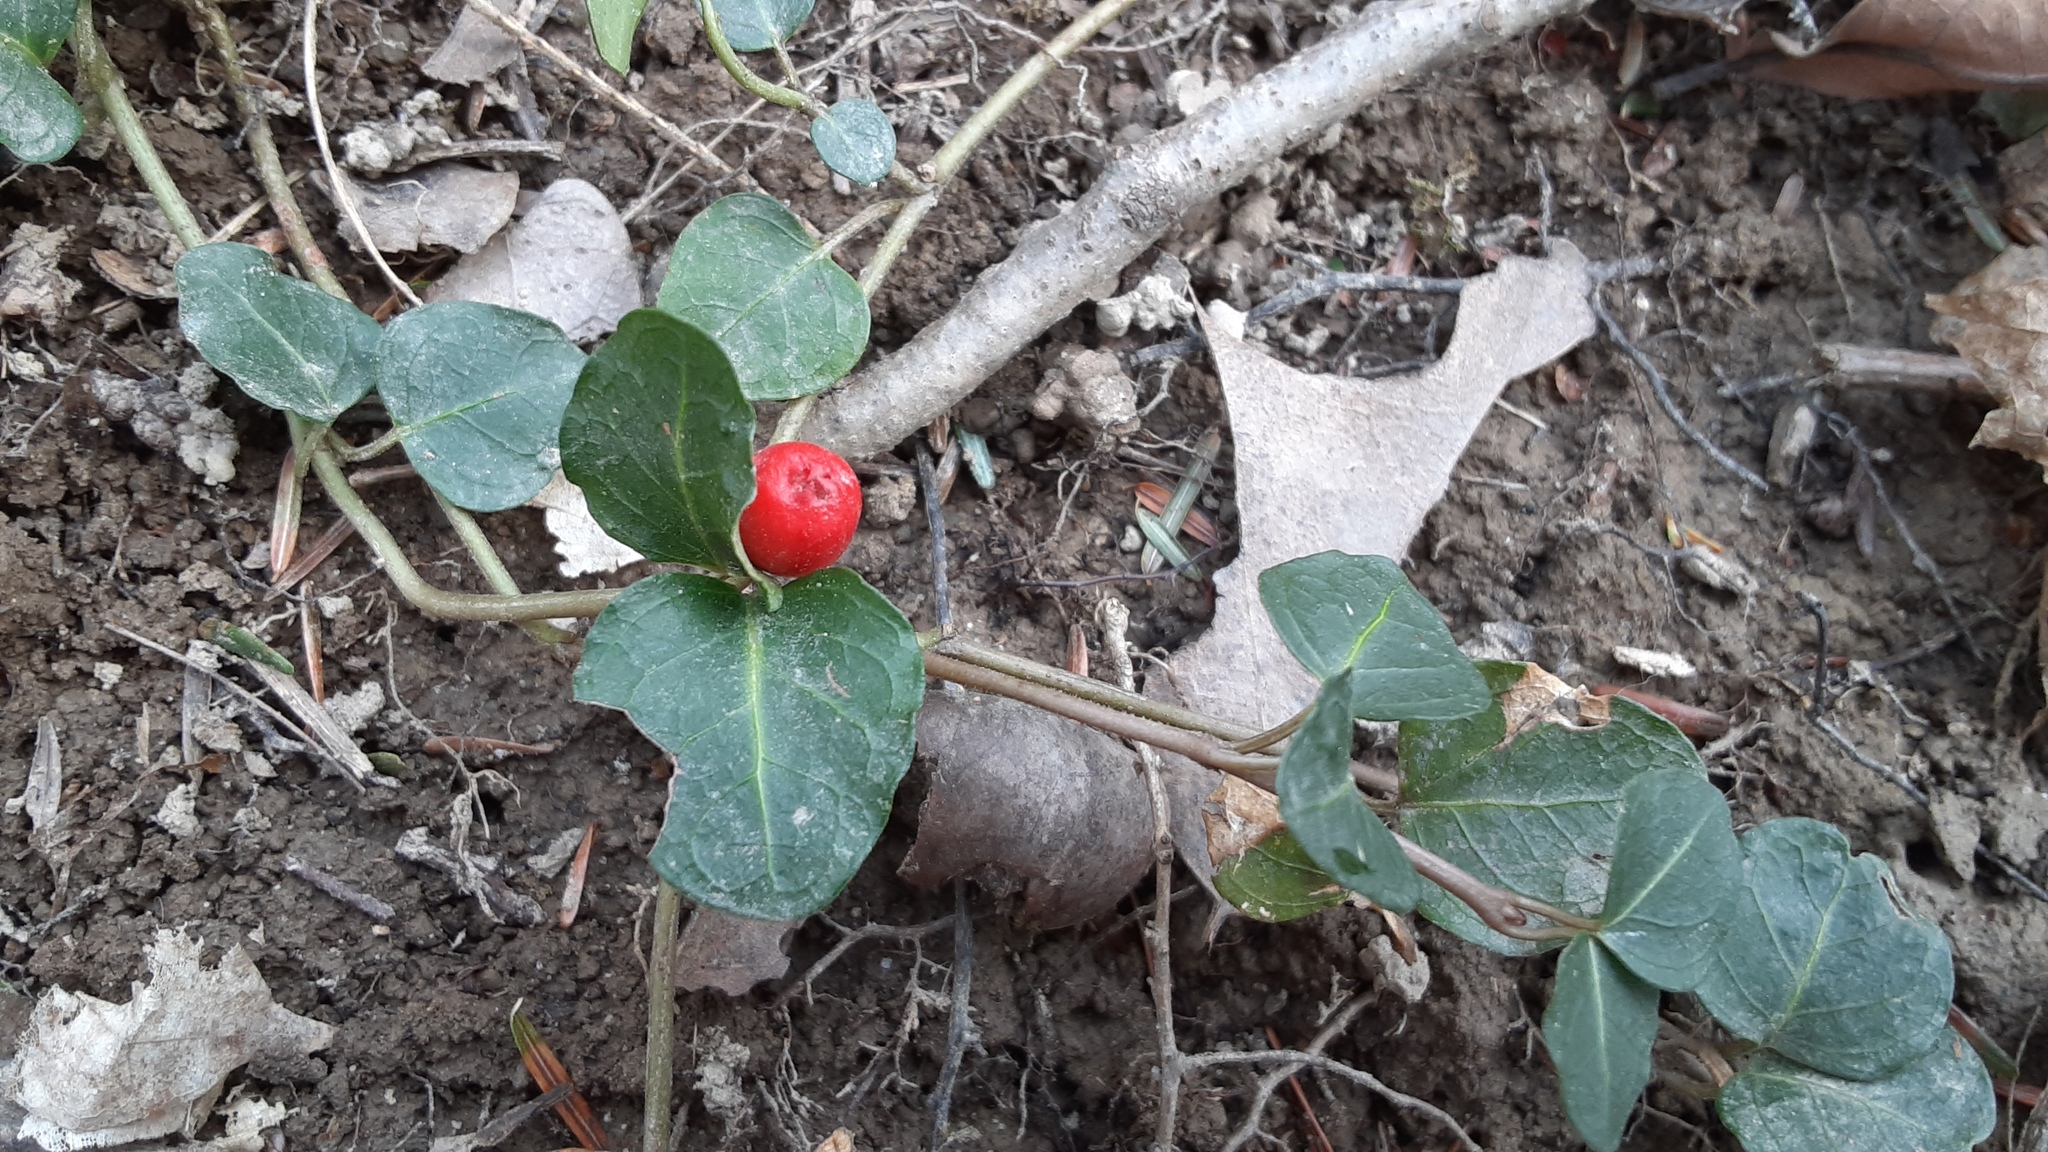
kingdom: Plantae
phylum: Tracheophyta
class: Magnoliopsida
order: Gentianales
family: Rubiaceae
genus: Mitchella
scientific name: Mitchella repens
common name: Partridge-berry
